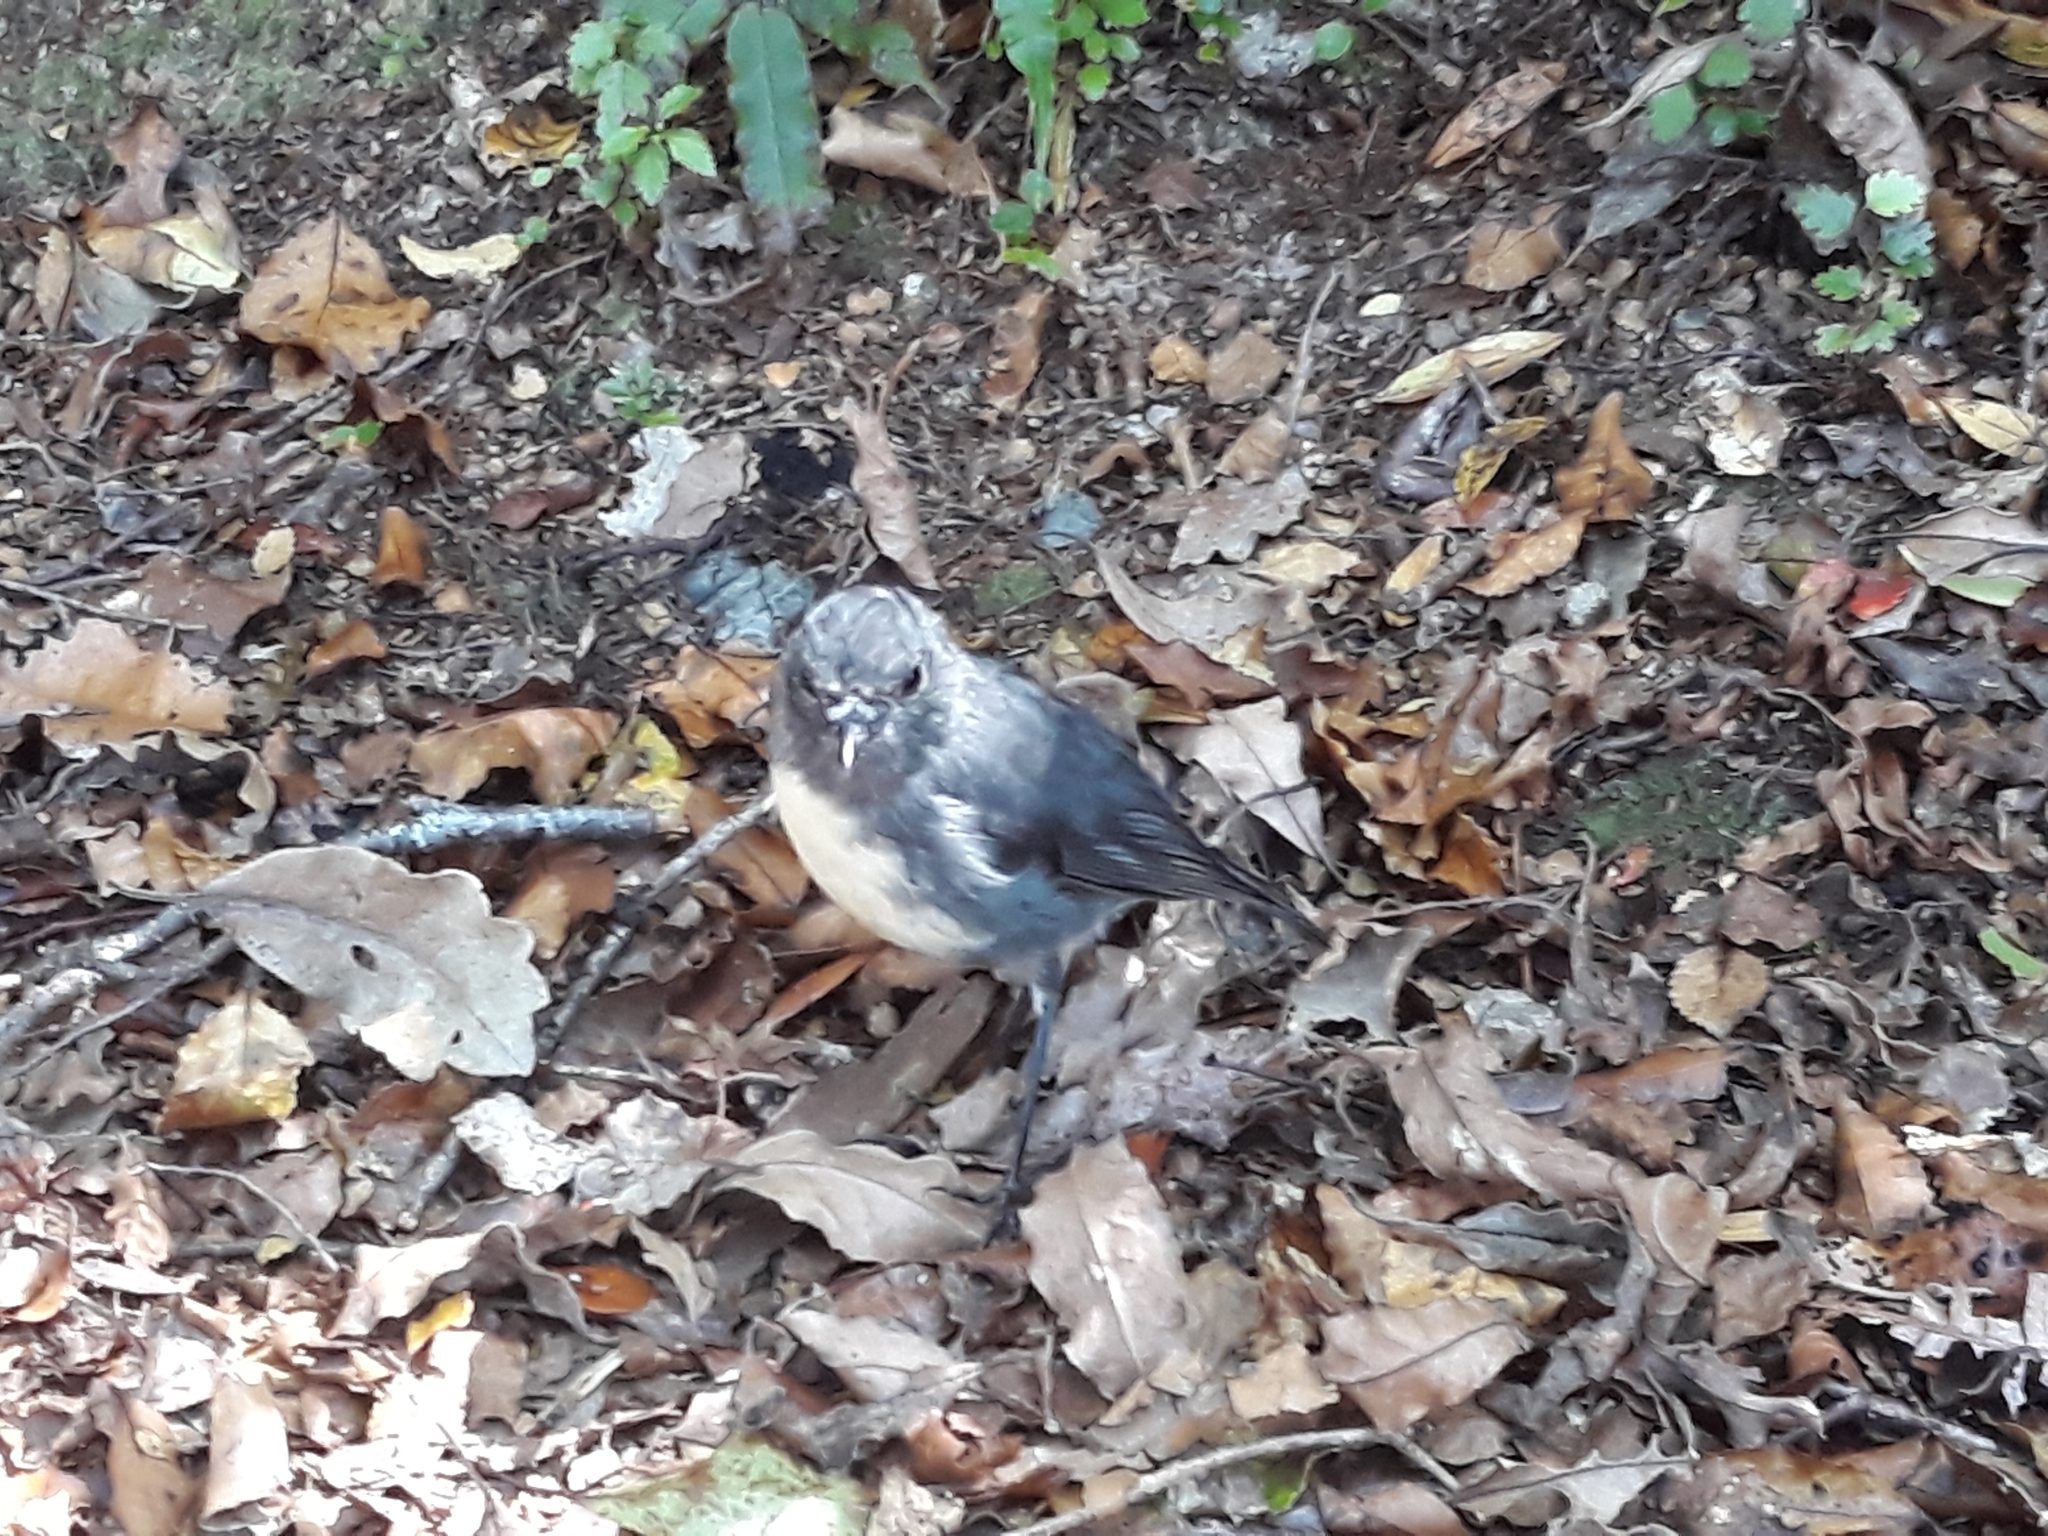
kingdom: Animalia
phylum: Chordata
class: Aves
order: Passeriformes
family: Petroicidae
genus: Petroica
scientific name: Petroica australis
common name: New zealand robin
